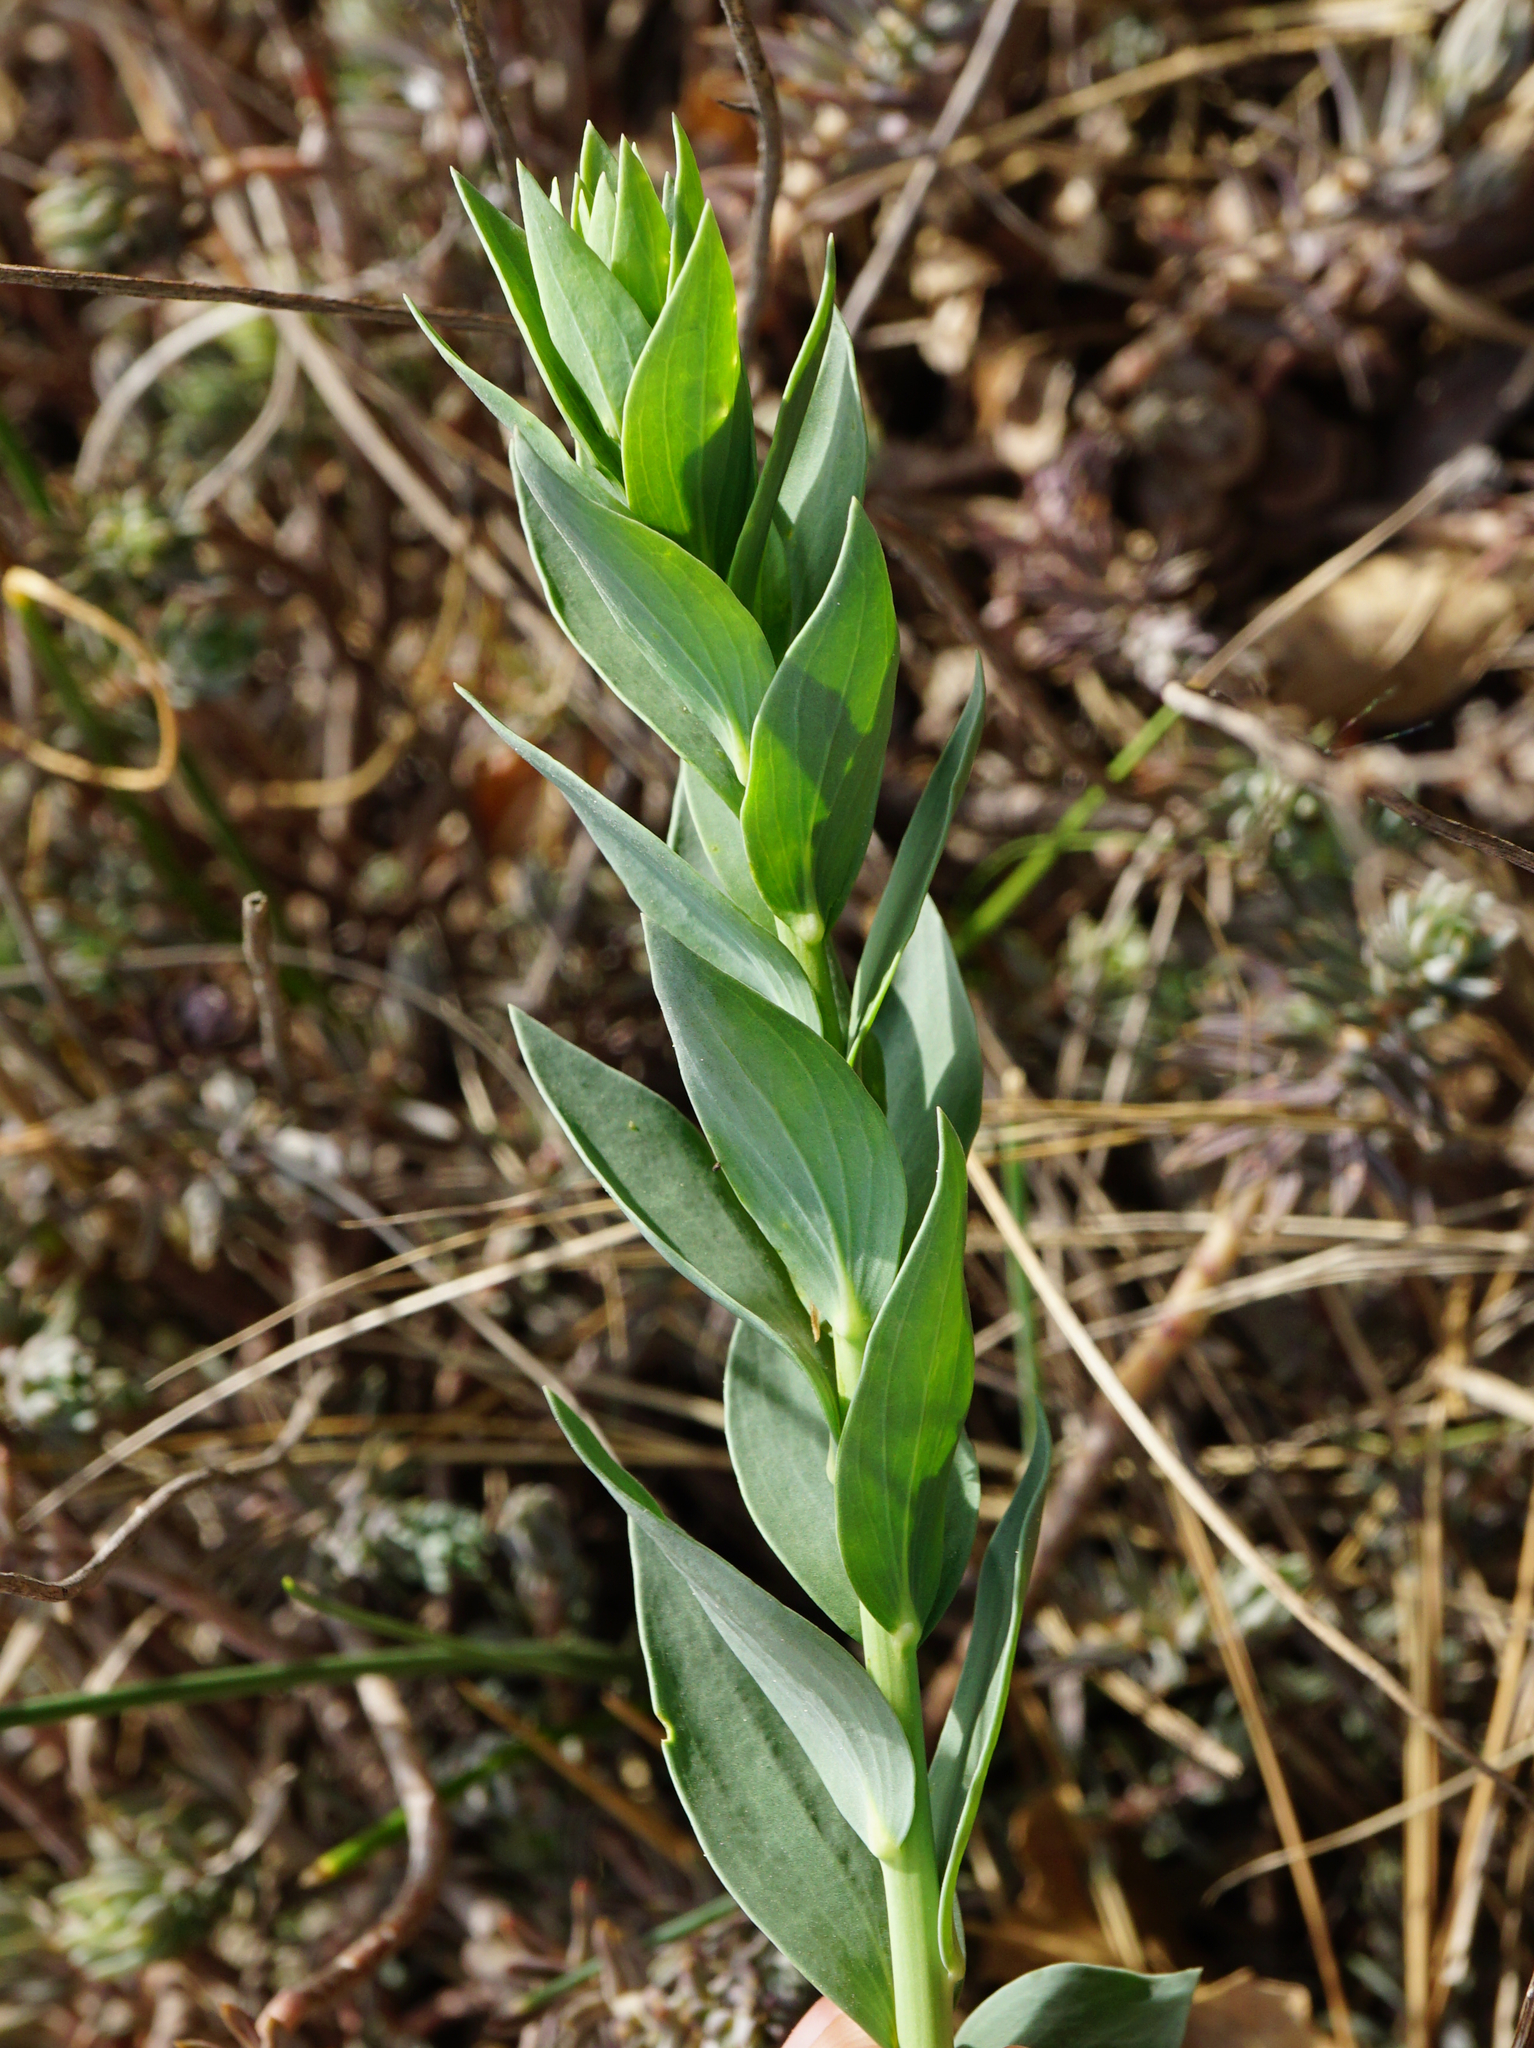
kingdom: Plantae
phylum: Tracheophyta
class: Magnoliopsida
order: Lamiales
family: Plantaginaceae
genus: Linaria
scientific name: Linaria genistifolia
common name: Broomleaf toadflax
